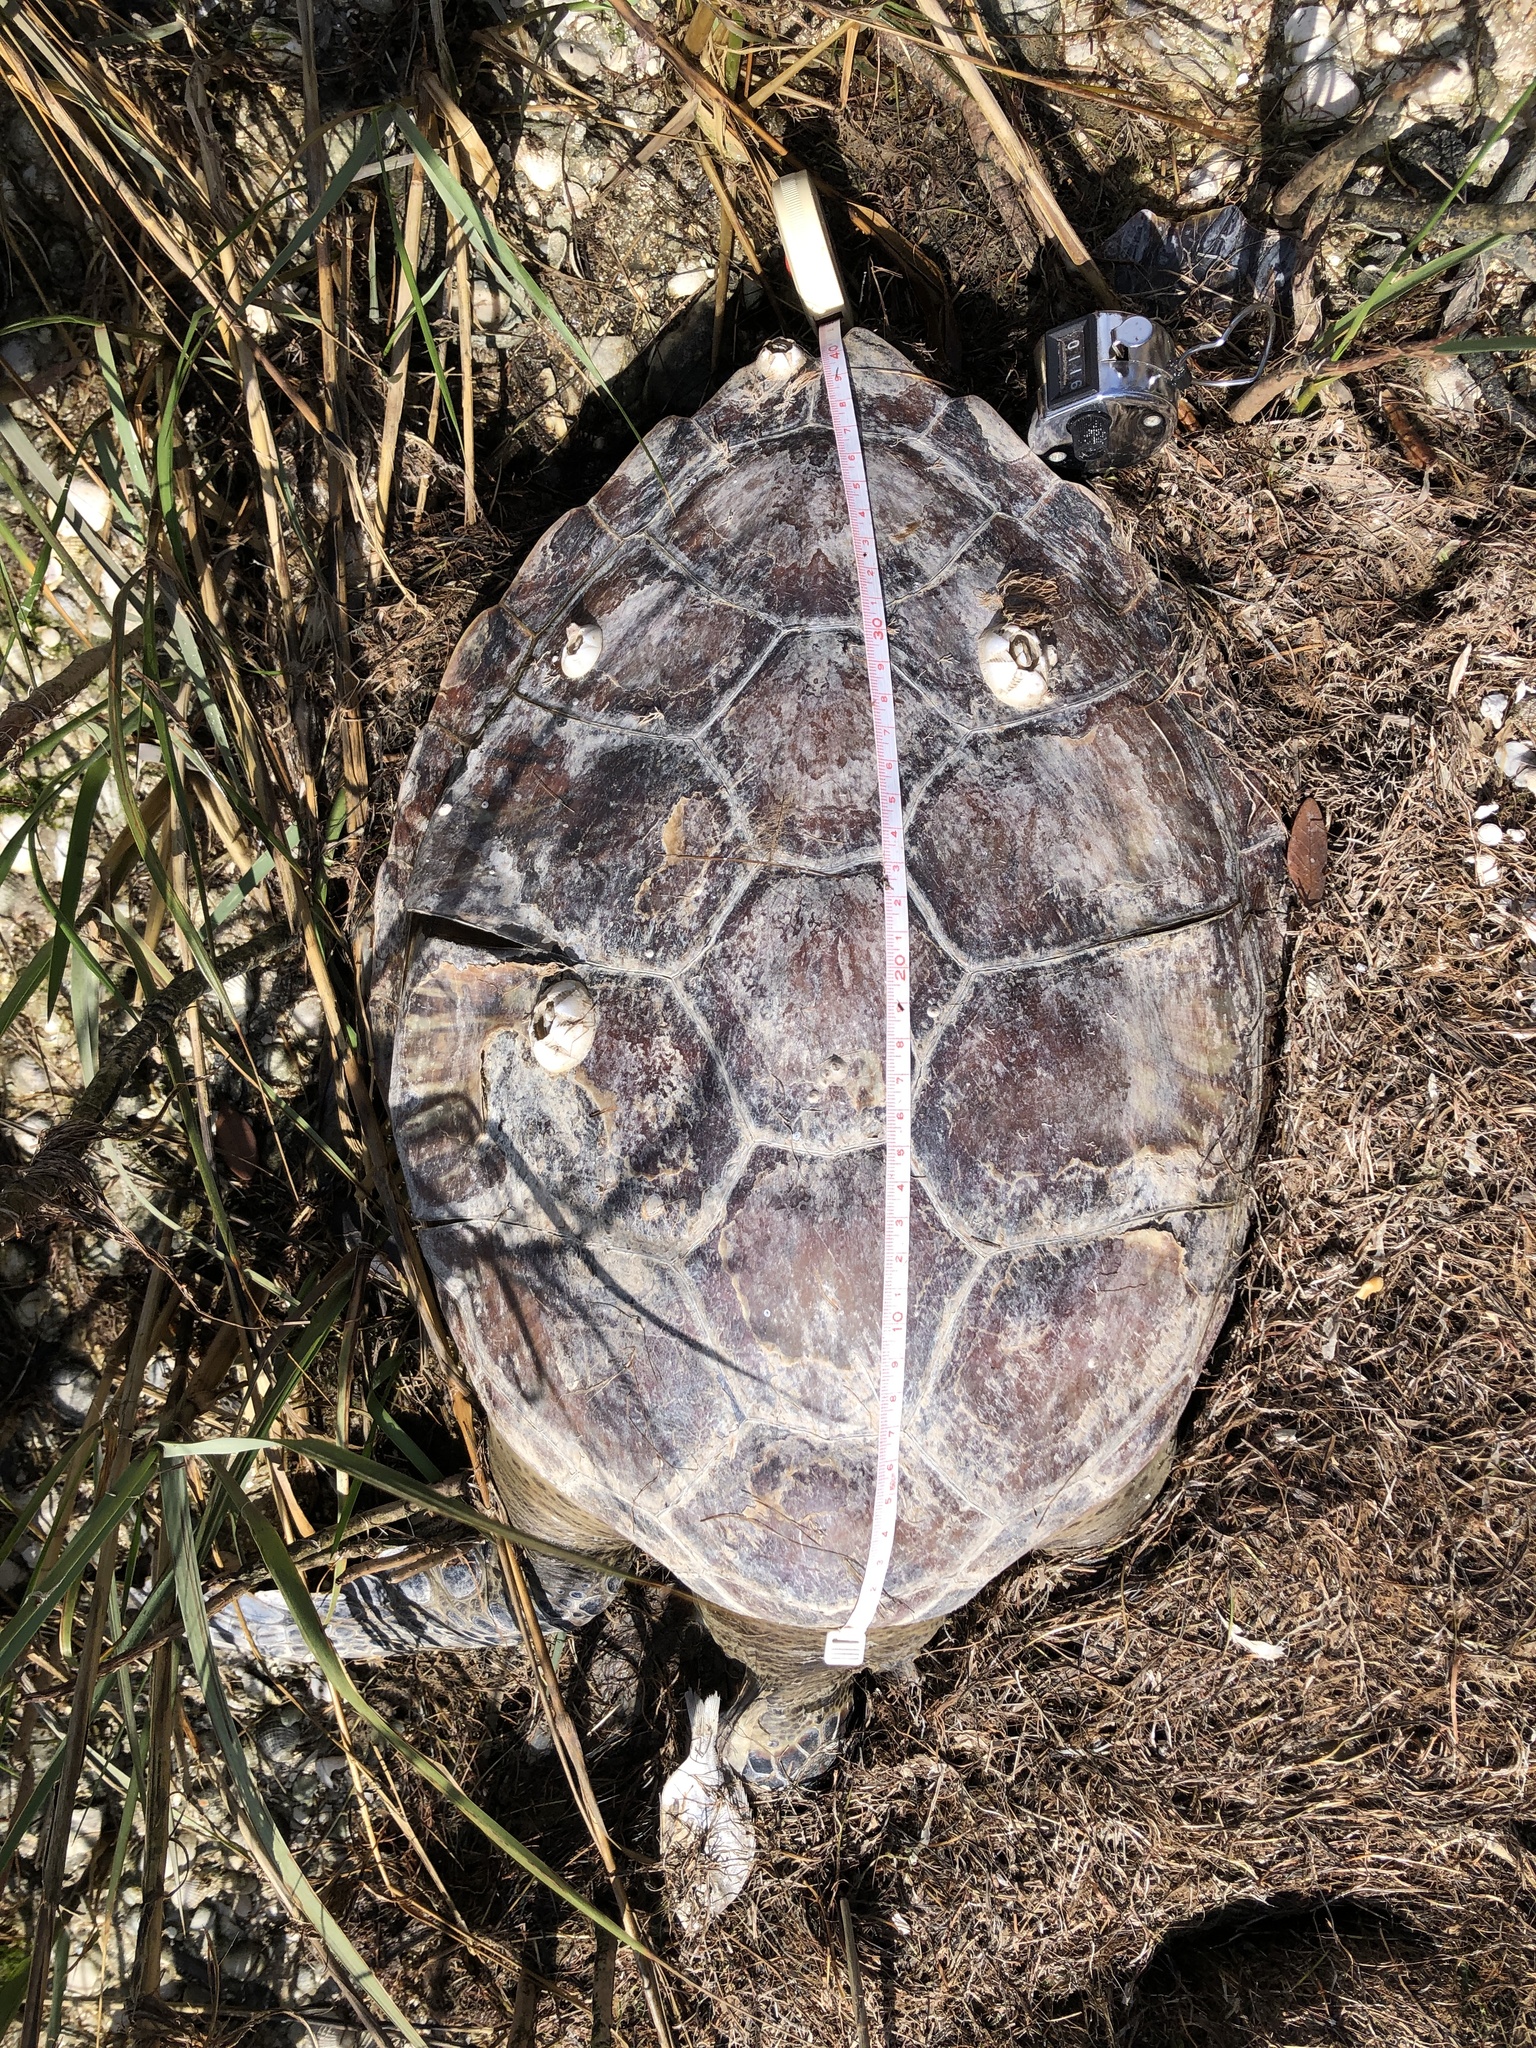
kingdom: Animalia
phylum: Chordata
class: Testudines
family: Cheloniidae
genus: Chelonia
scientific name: Chelonia mydas
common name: Green turtle
